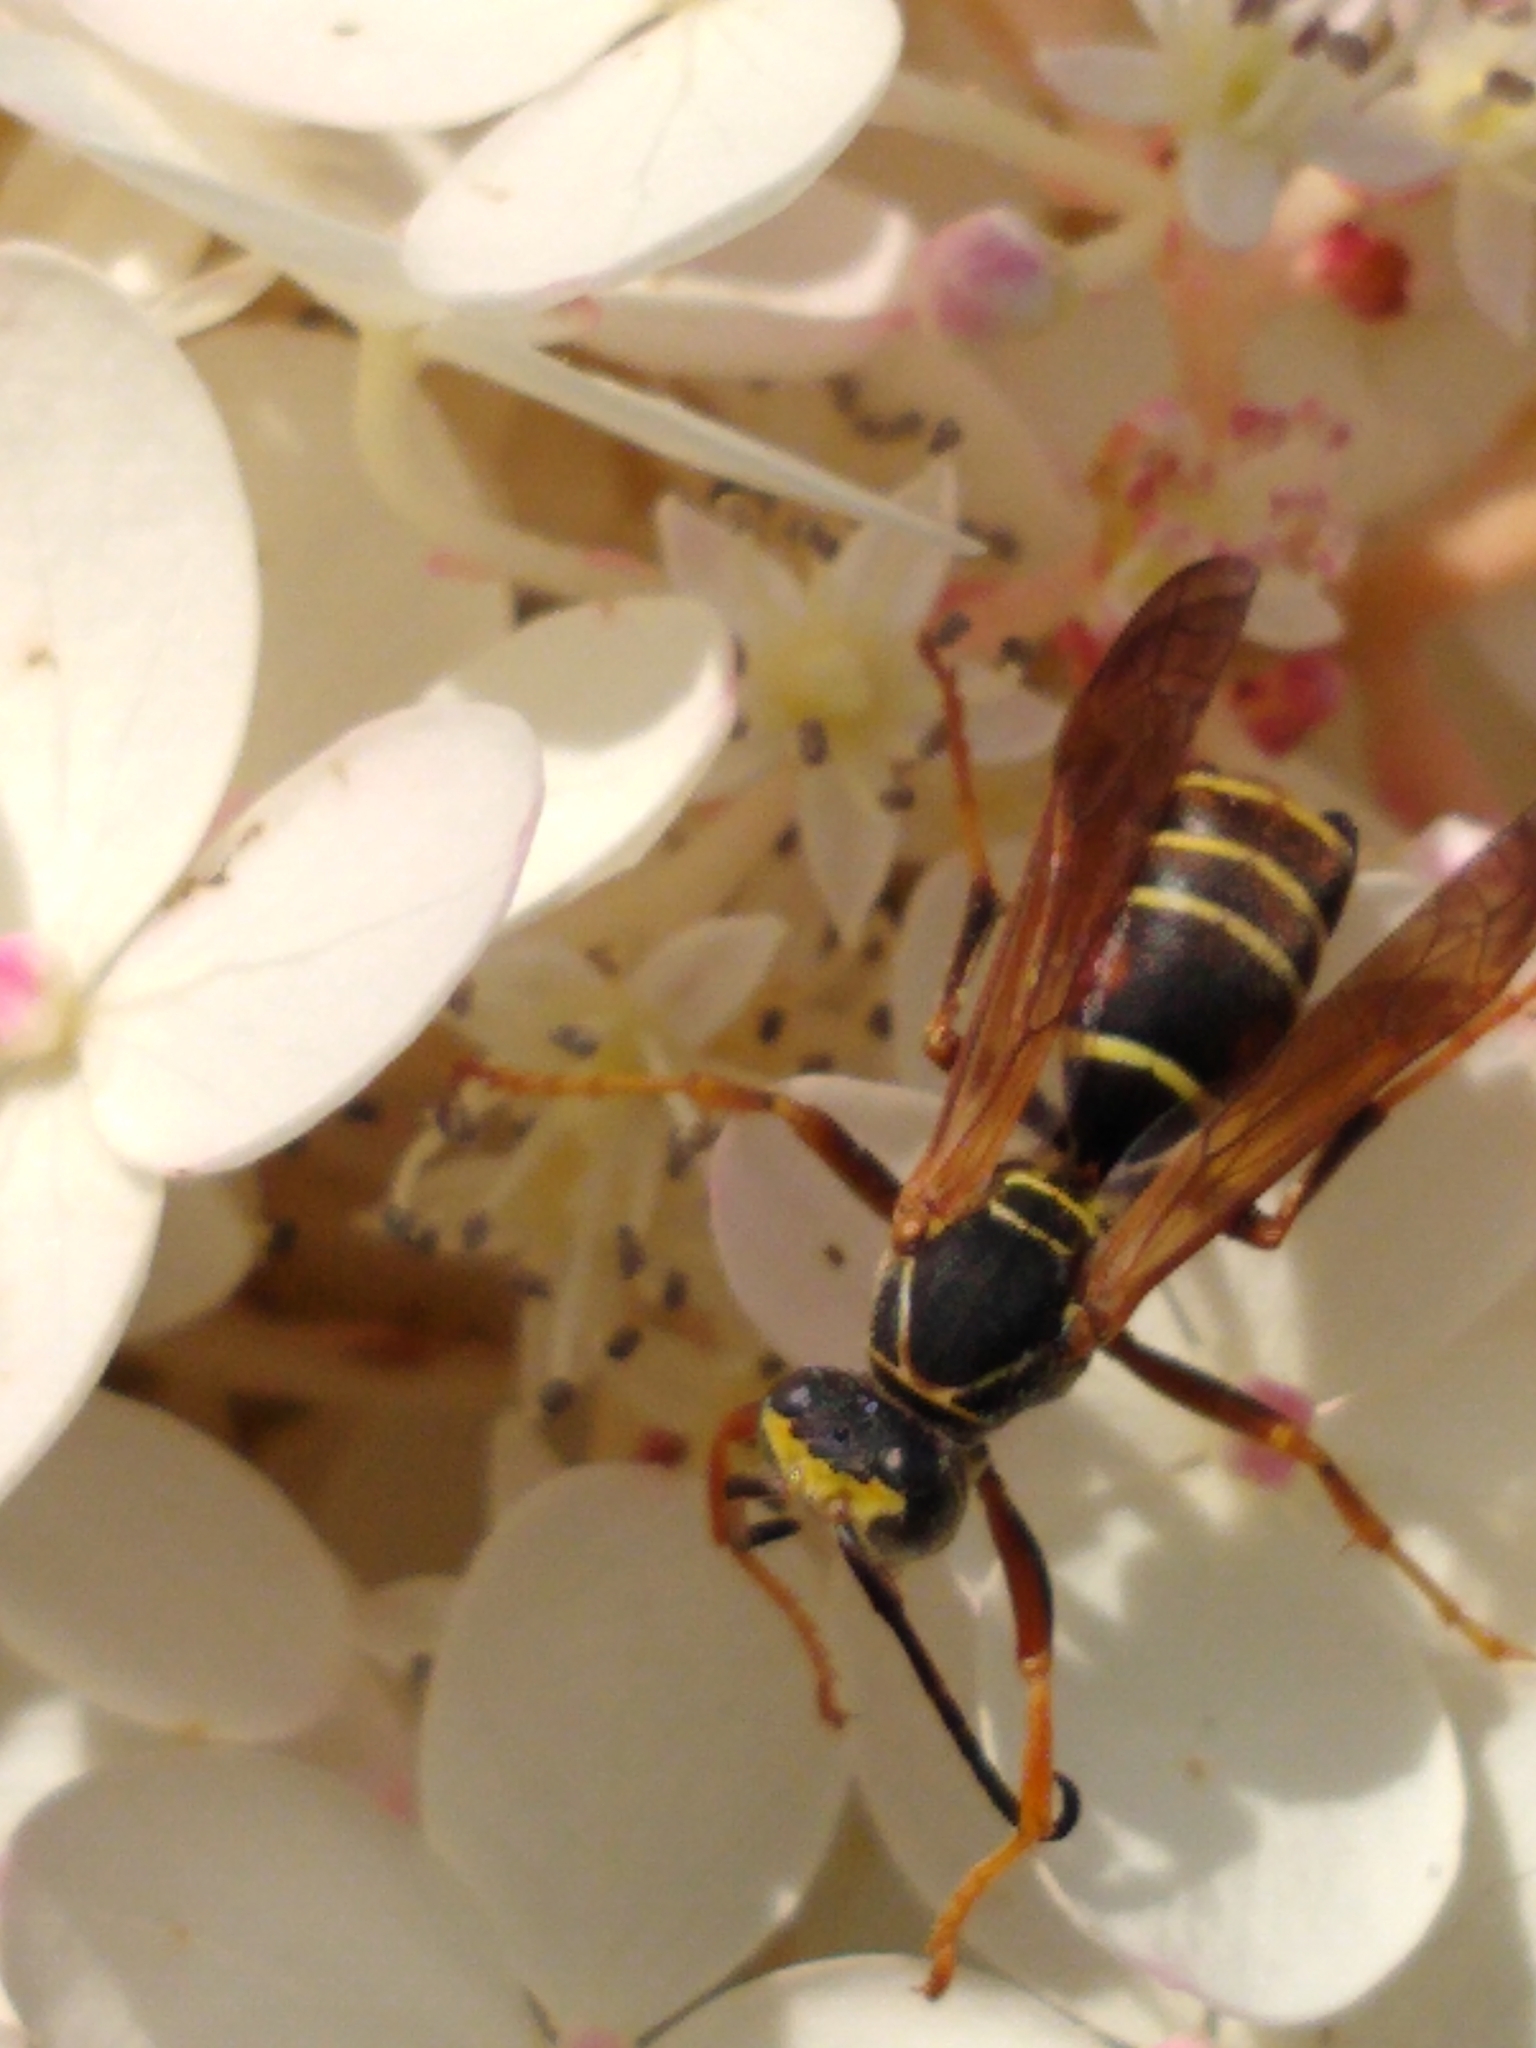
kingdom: Animalia
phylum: Arthropoda
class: Insecta
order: Hymenoptera
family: Eumenidae
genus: Polistes
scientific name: Polistes fuscatus
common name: Dark paper wasp
